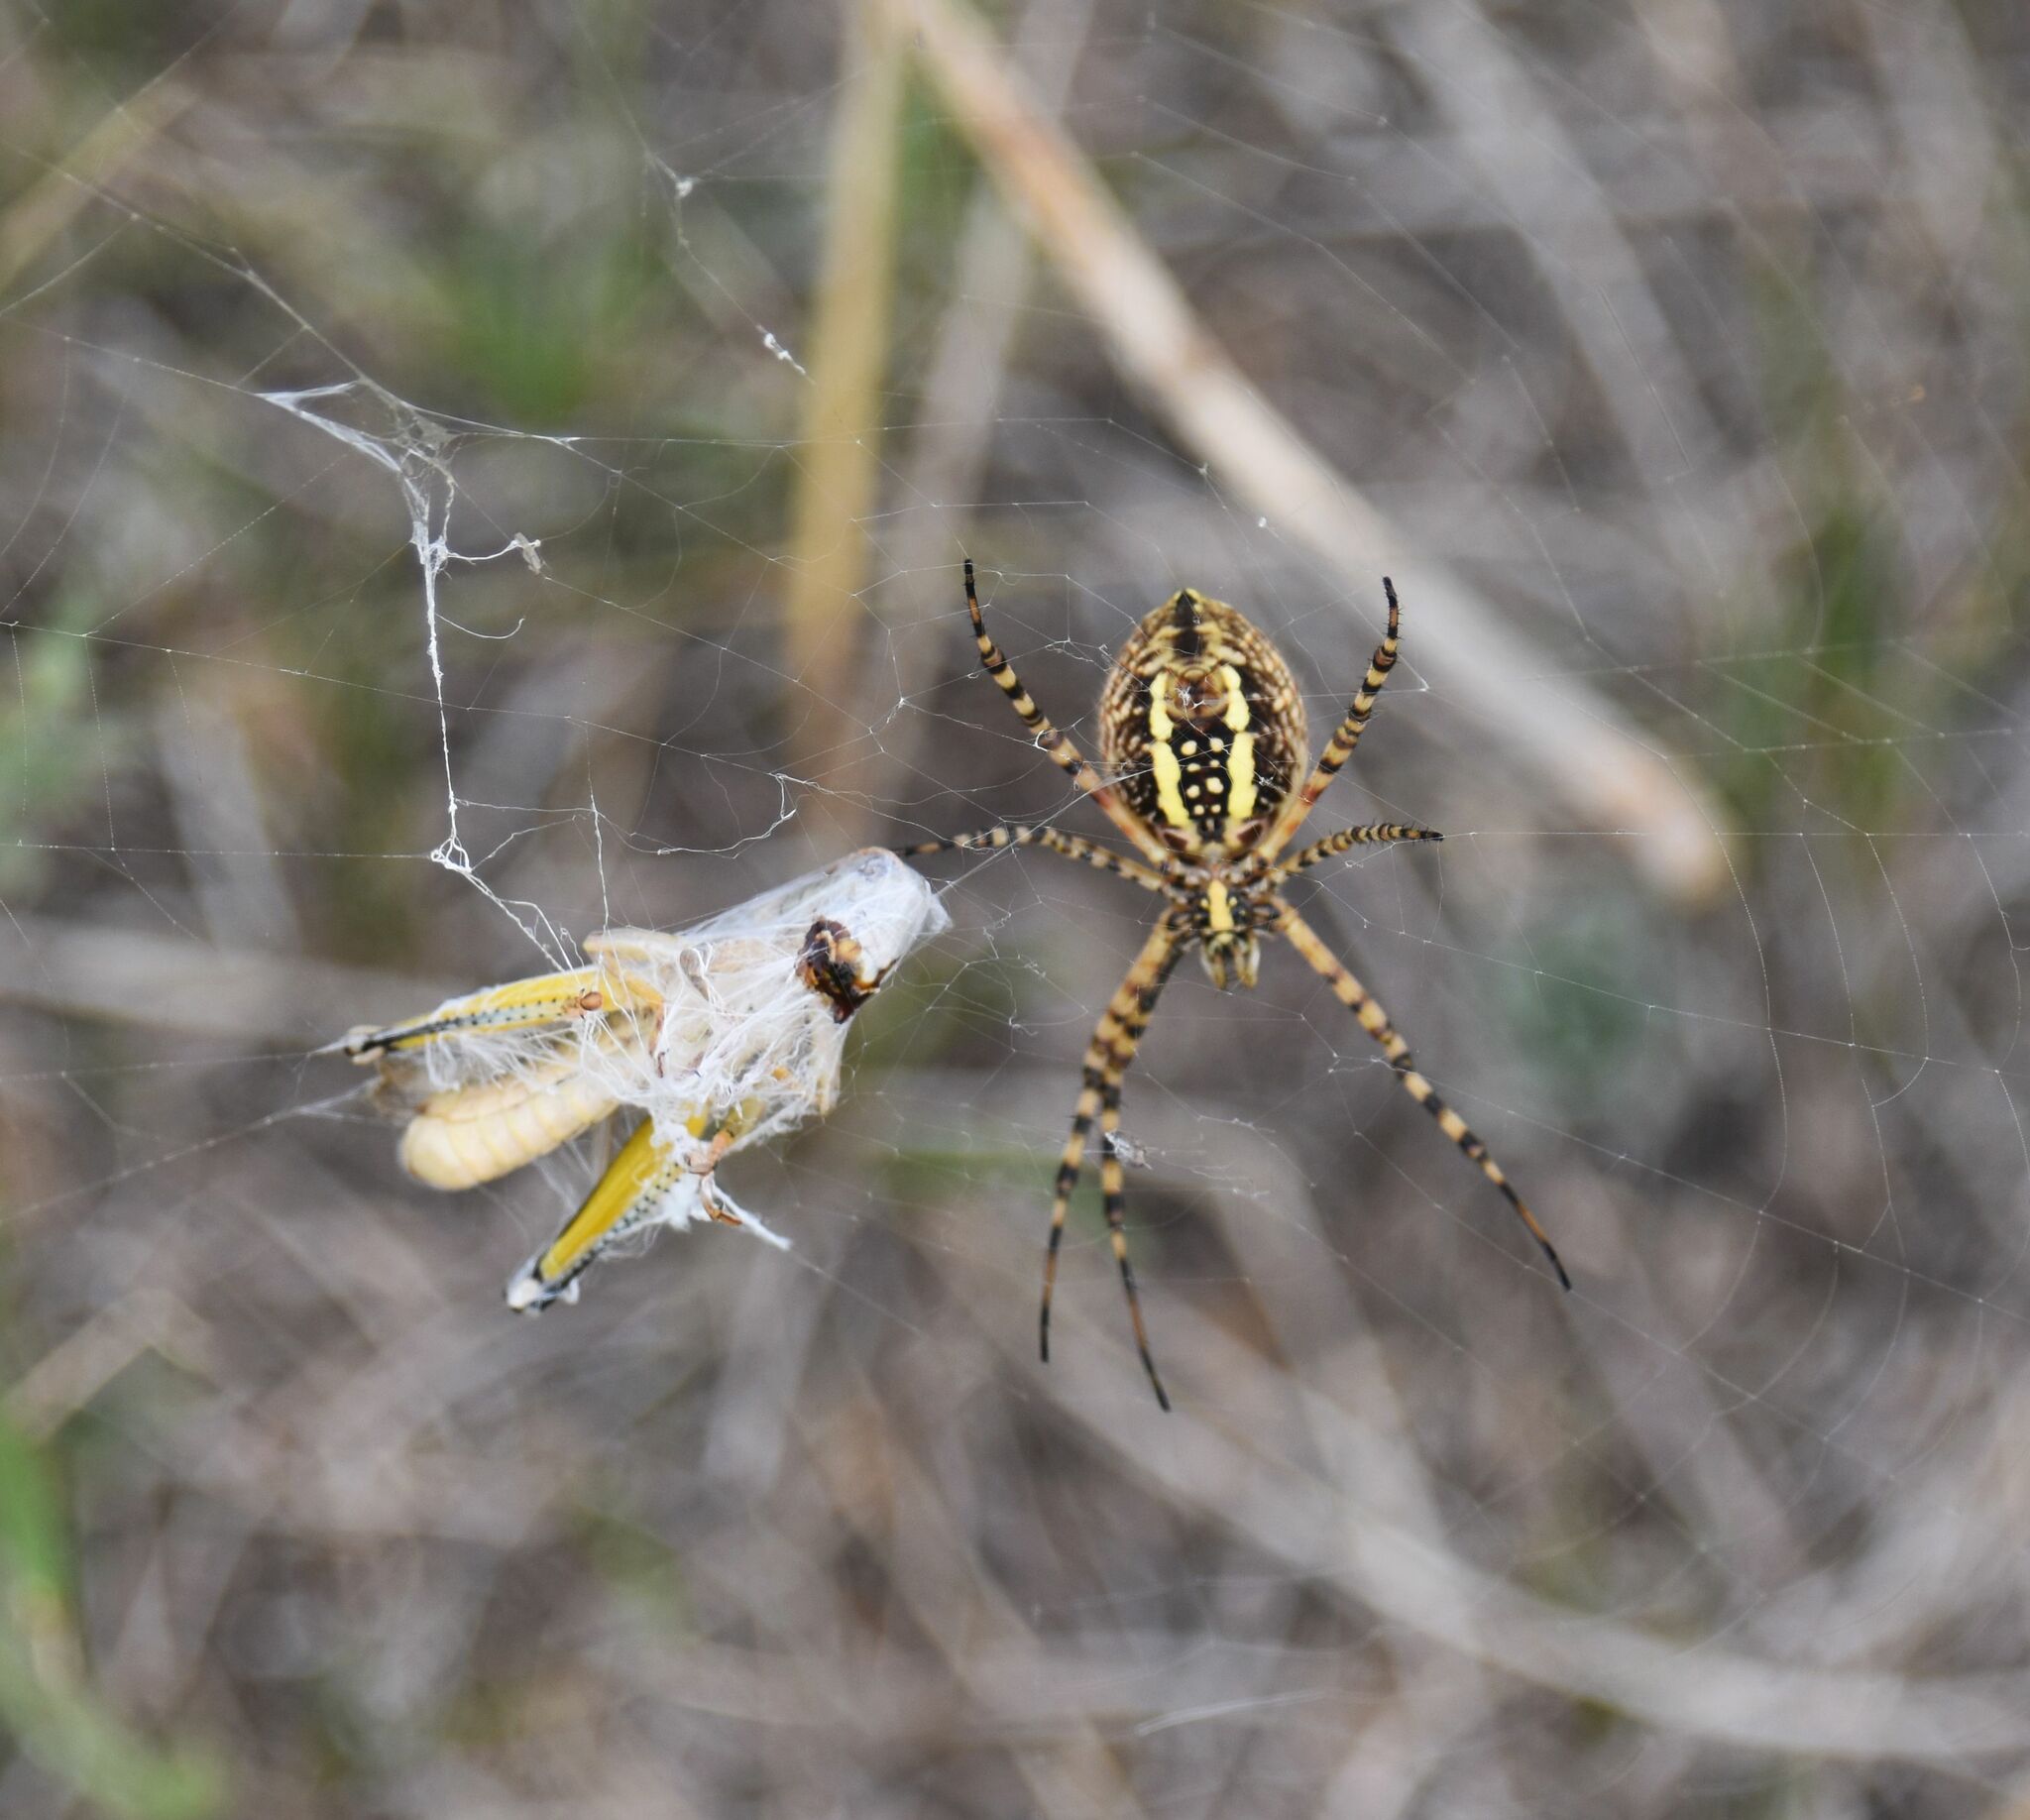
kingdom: Animalia
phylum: Arthropoda
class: Arachnida
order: Araneae
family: Araneidae
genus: Argiope
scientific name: Argiope trifasciata
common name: Banded garden spider
